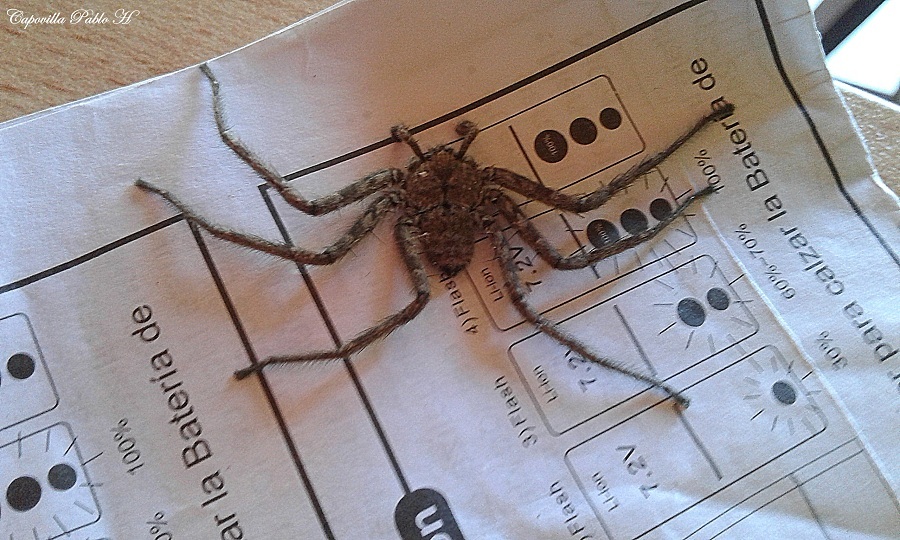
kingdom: Animalia
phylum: Arthropoda
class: Arachnida
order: Araneae
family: Selenopidae
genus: Selenops
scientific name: Selenops
